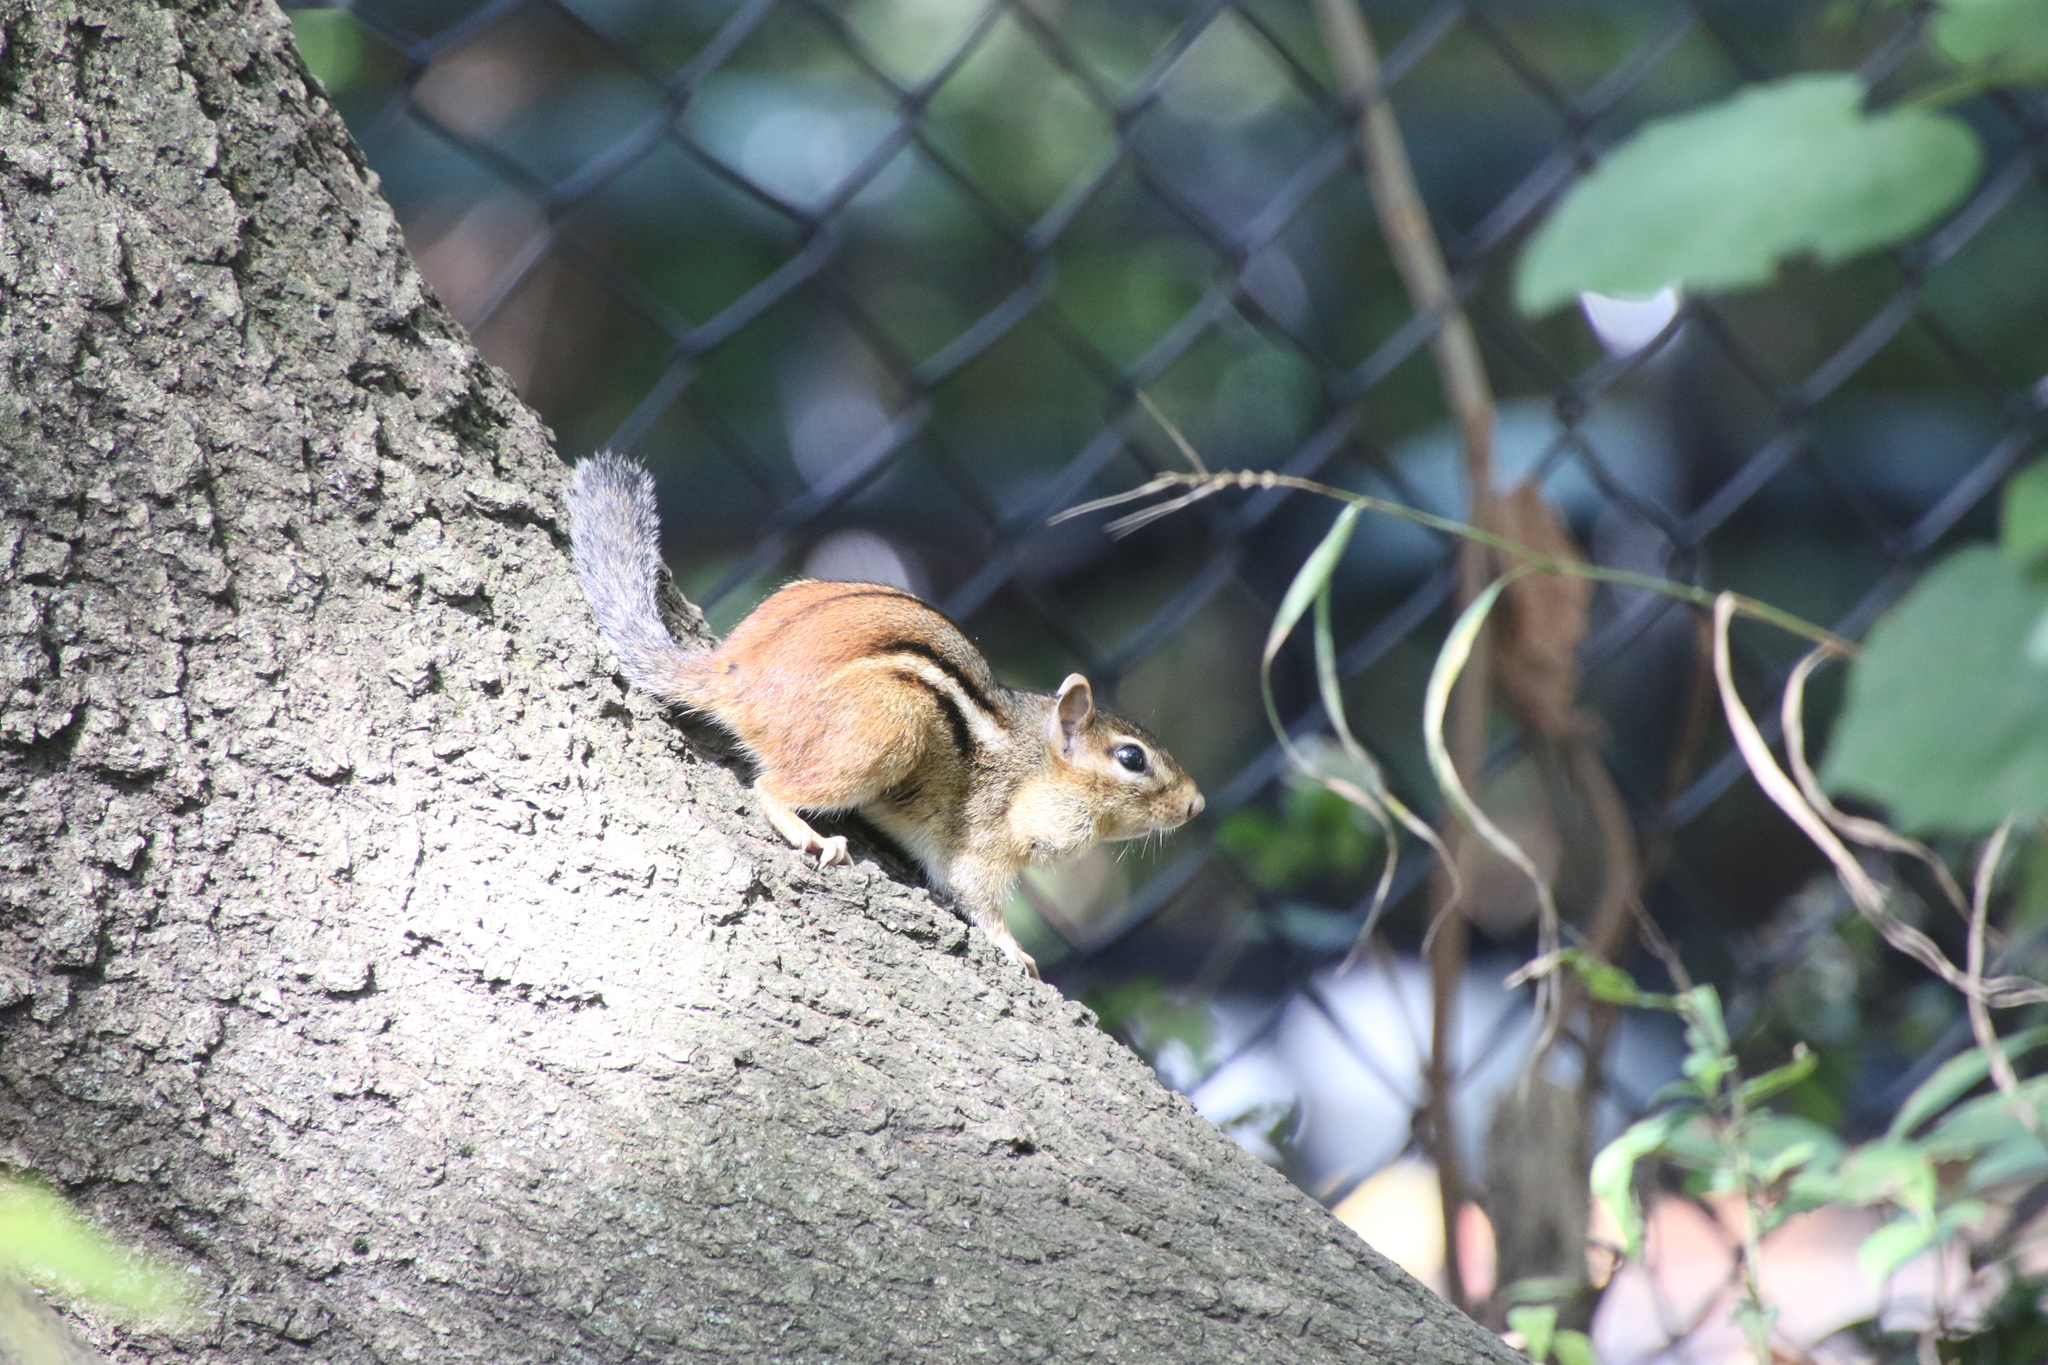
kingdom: Animalia
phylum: Chordata
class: Mammalia
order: Rodentia
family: Sciuridae
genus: Tamias
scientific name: Tamias striatus
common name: Eastern chipmunk
